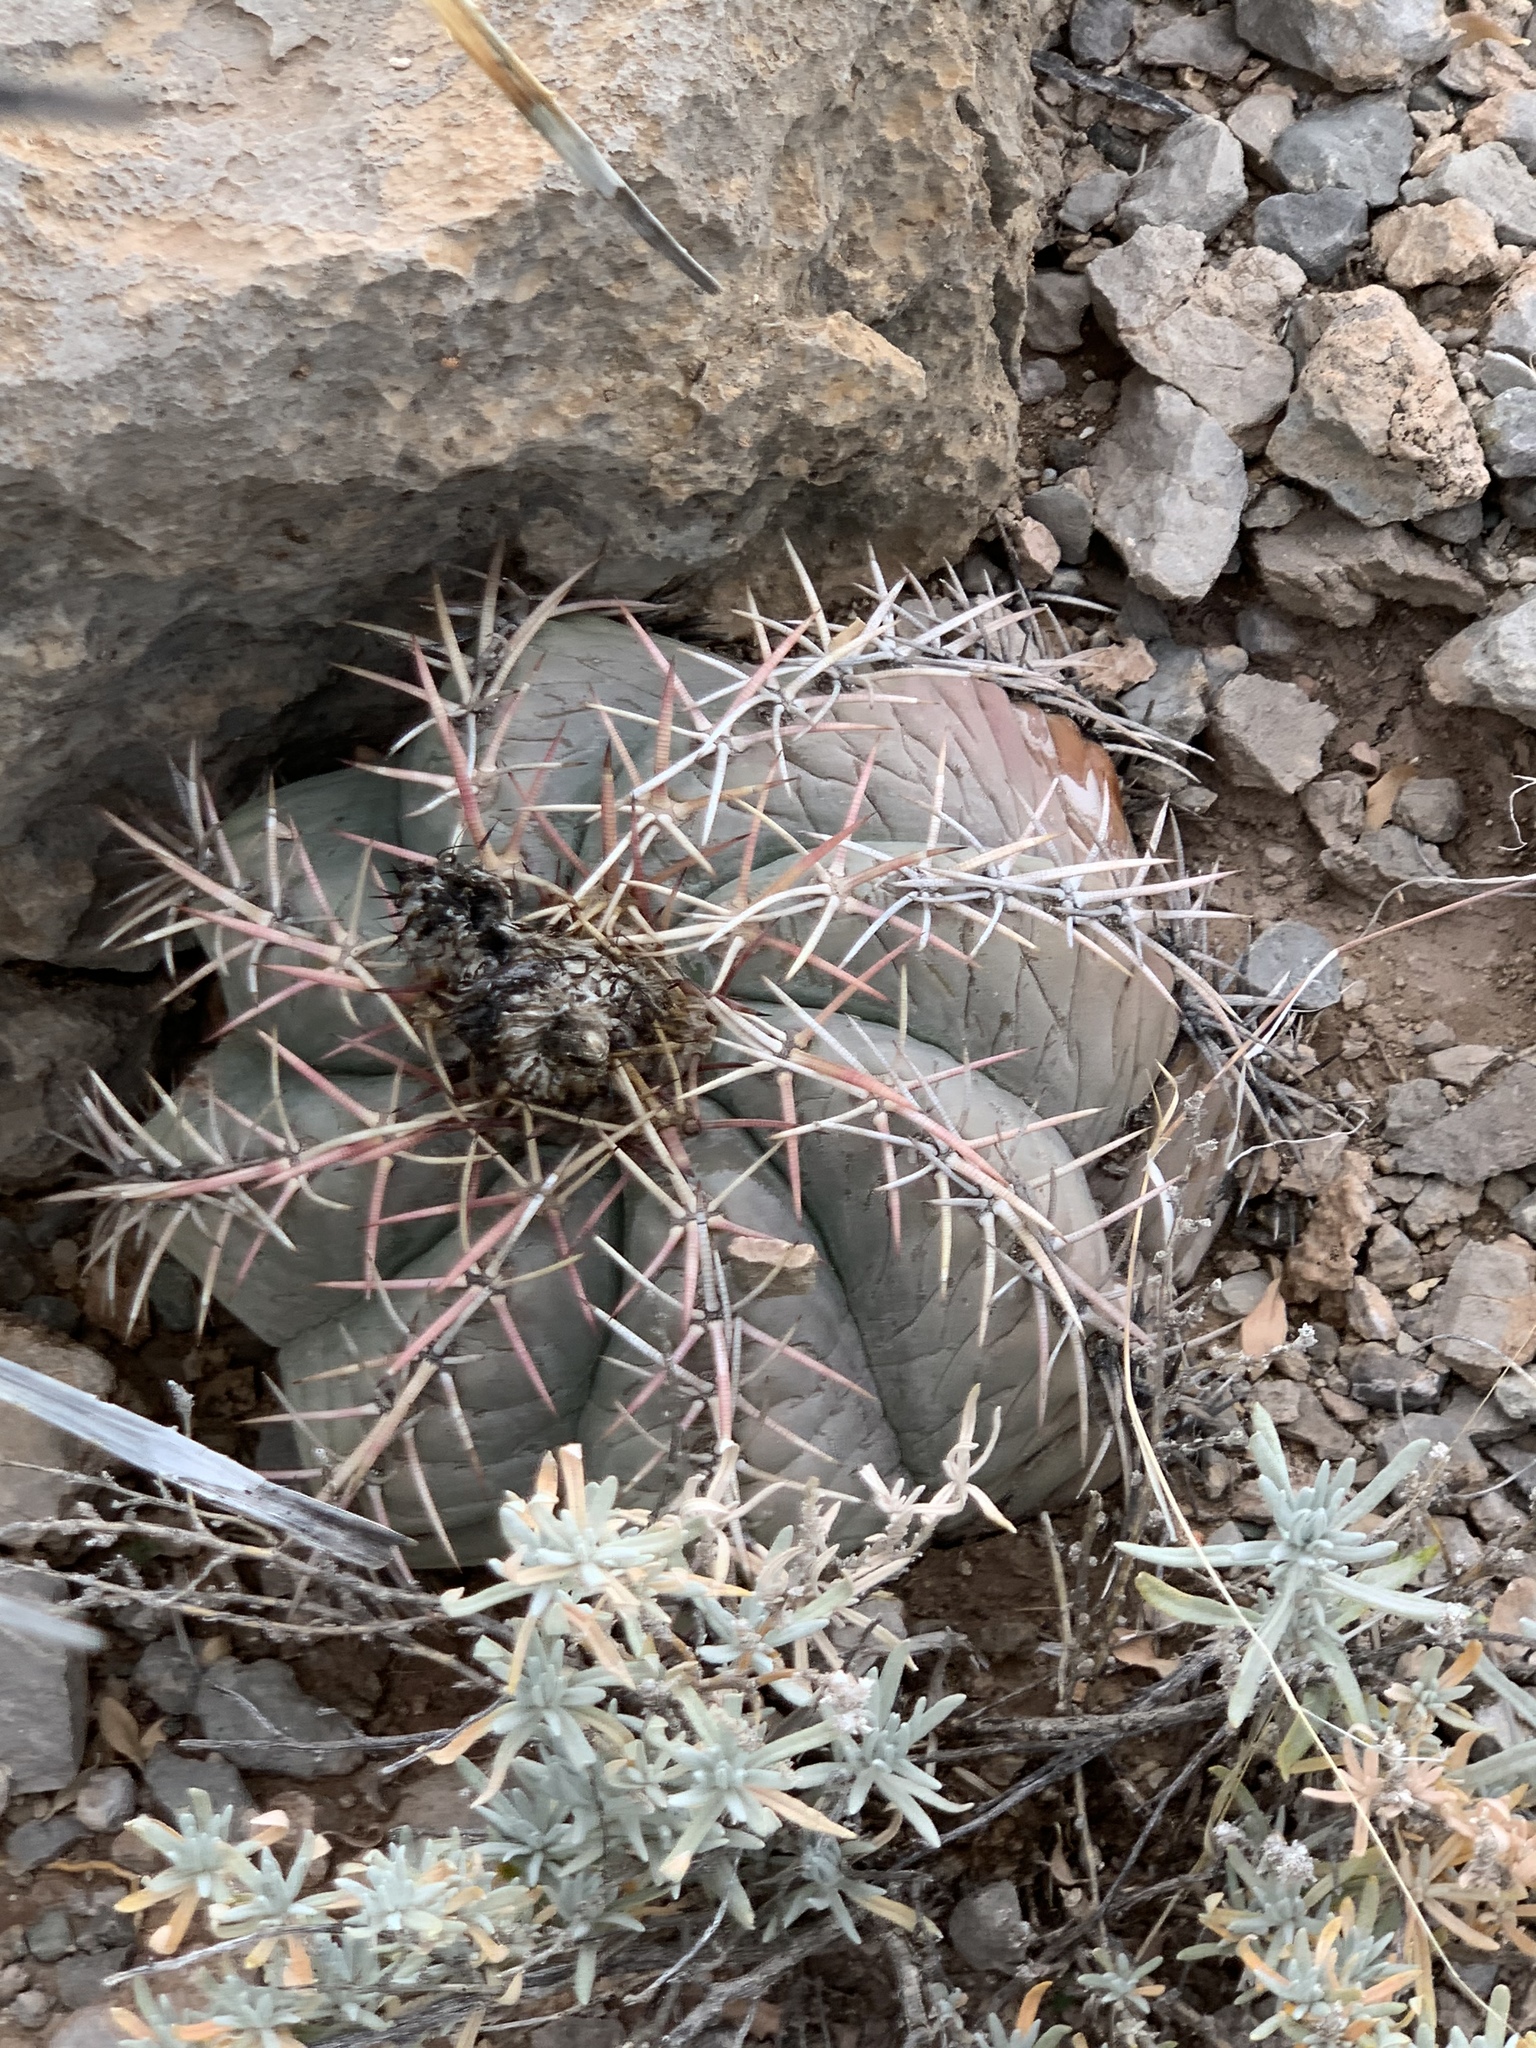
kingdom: Plantae
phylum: Tracheophyta
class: Magnoliopsida
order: Caryophyllales
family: Cactaceae
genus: Echinocactus
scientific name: Echinocactus horizonthalonius
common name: Devilshead
